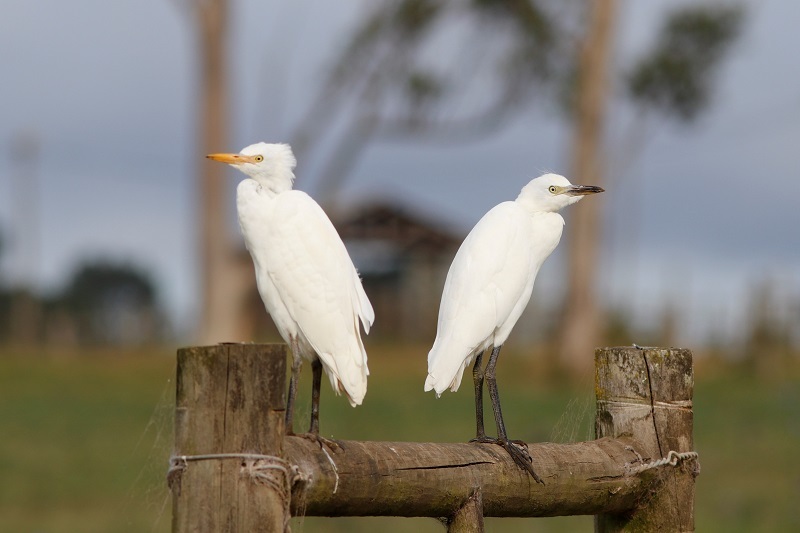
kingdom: Animalia
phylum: Chordata
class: Aves
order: Pelecaniformes
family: Ardeidae
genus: Bubulcus
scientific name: Bubulcus ibis
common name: Cattle egret
